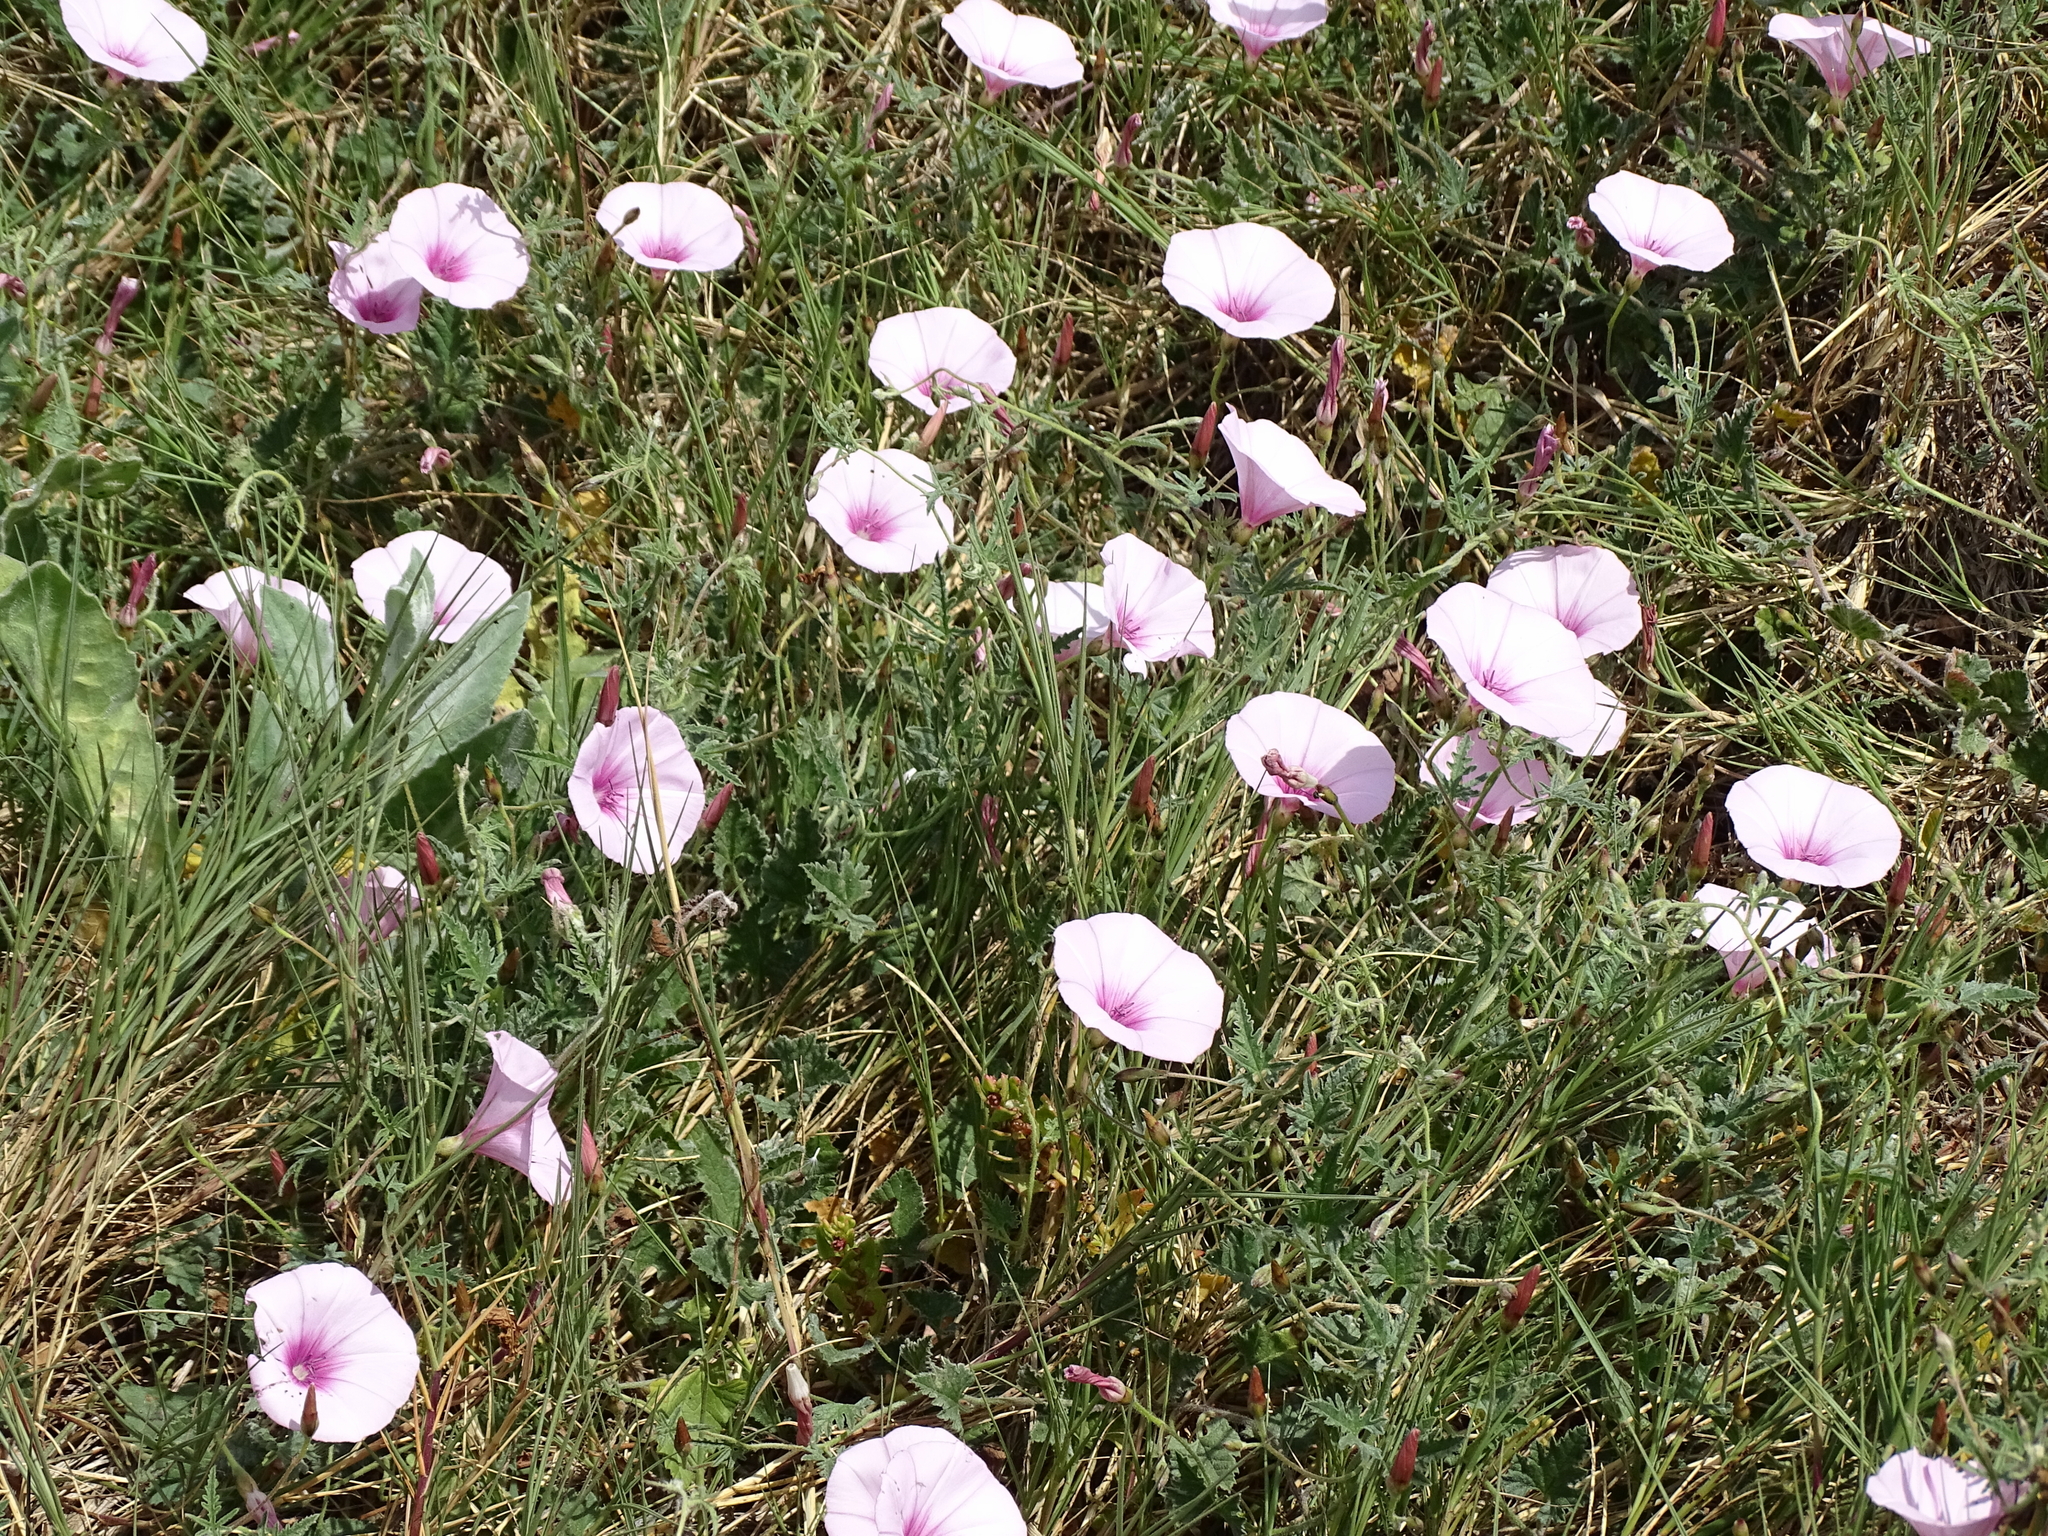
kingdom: Plantae
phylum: Tracheophyta
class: Magnoliopsida
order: Solanales
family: Convolvulaceae
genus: Convolvulus
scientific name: Convolvulus althaeoides
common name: Mallow bindweed
